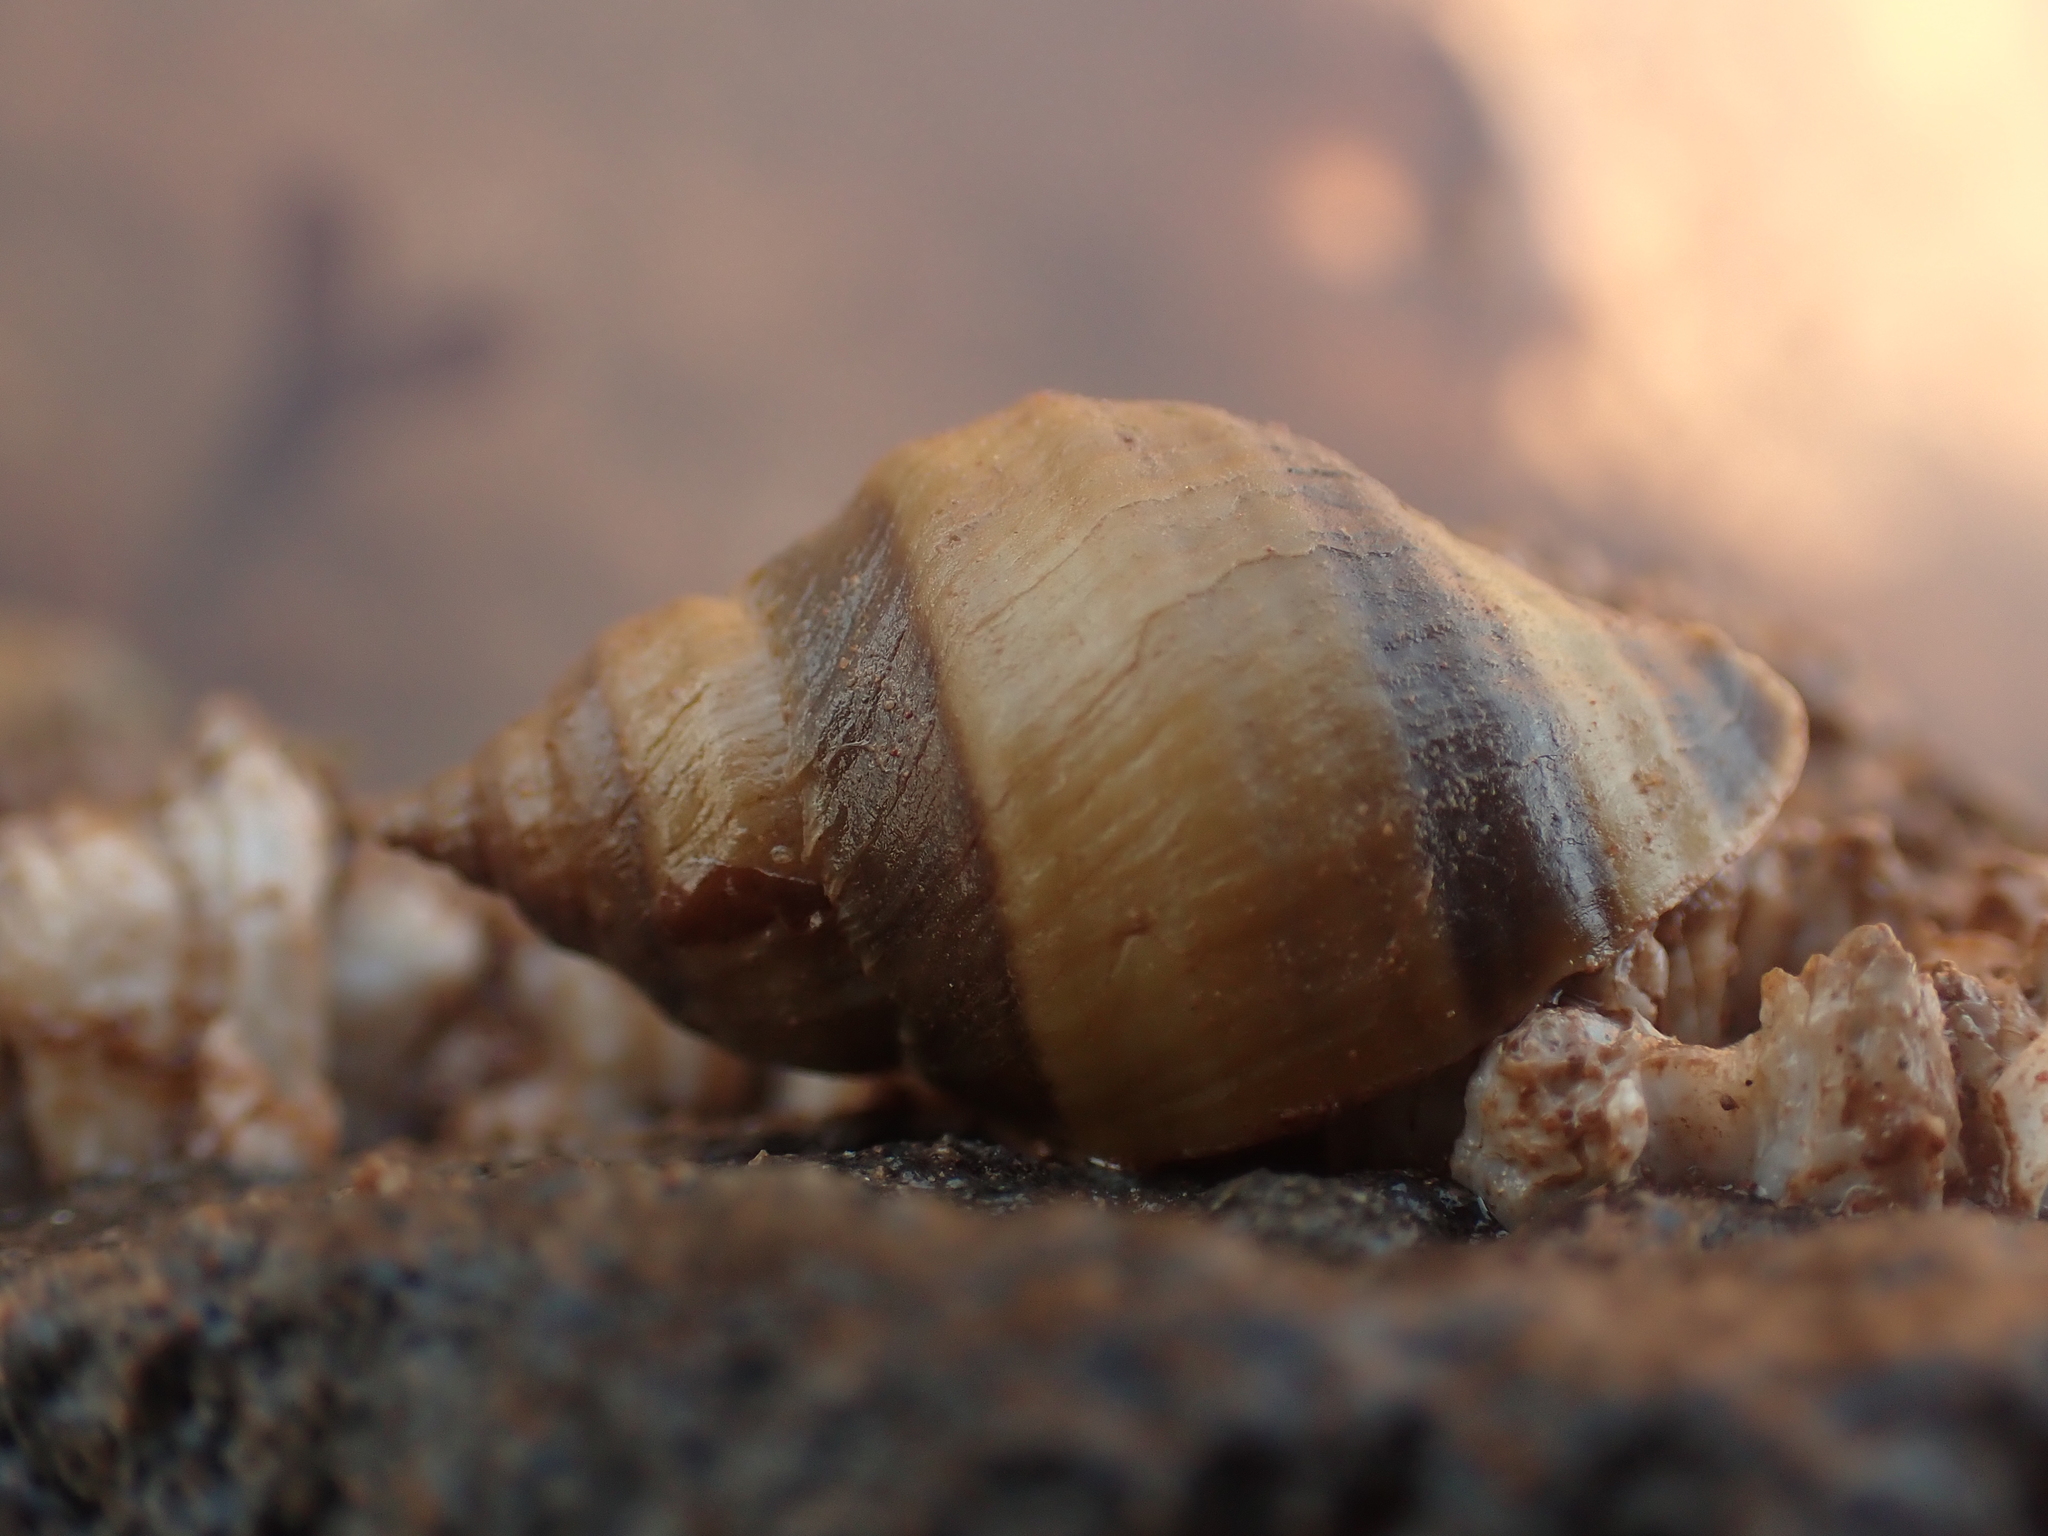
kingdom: Animalia
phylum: Mollusca
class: Gastropoda
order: Neogastropoda
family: Muricidae
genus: Nucella
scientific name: Nucella lapillus
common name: Dog whelk
